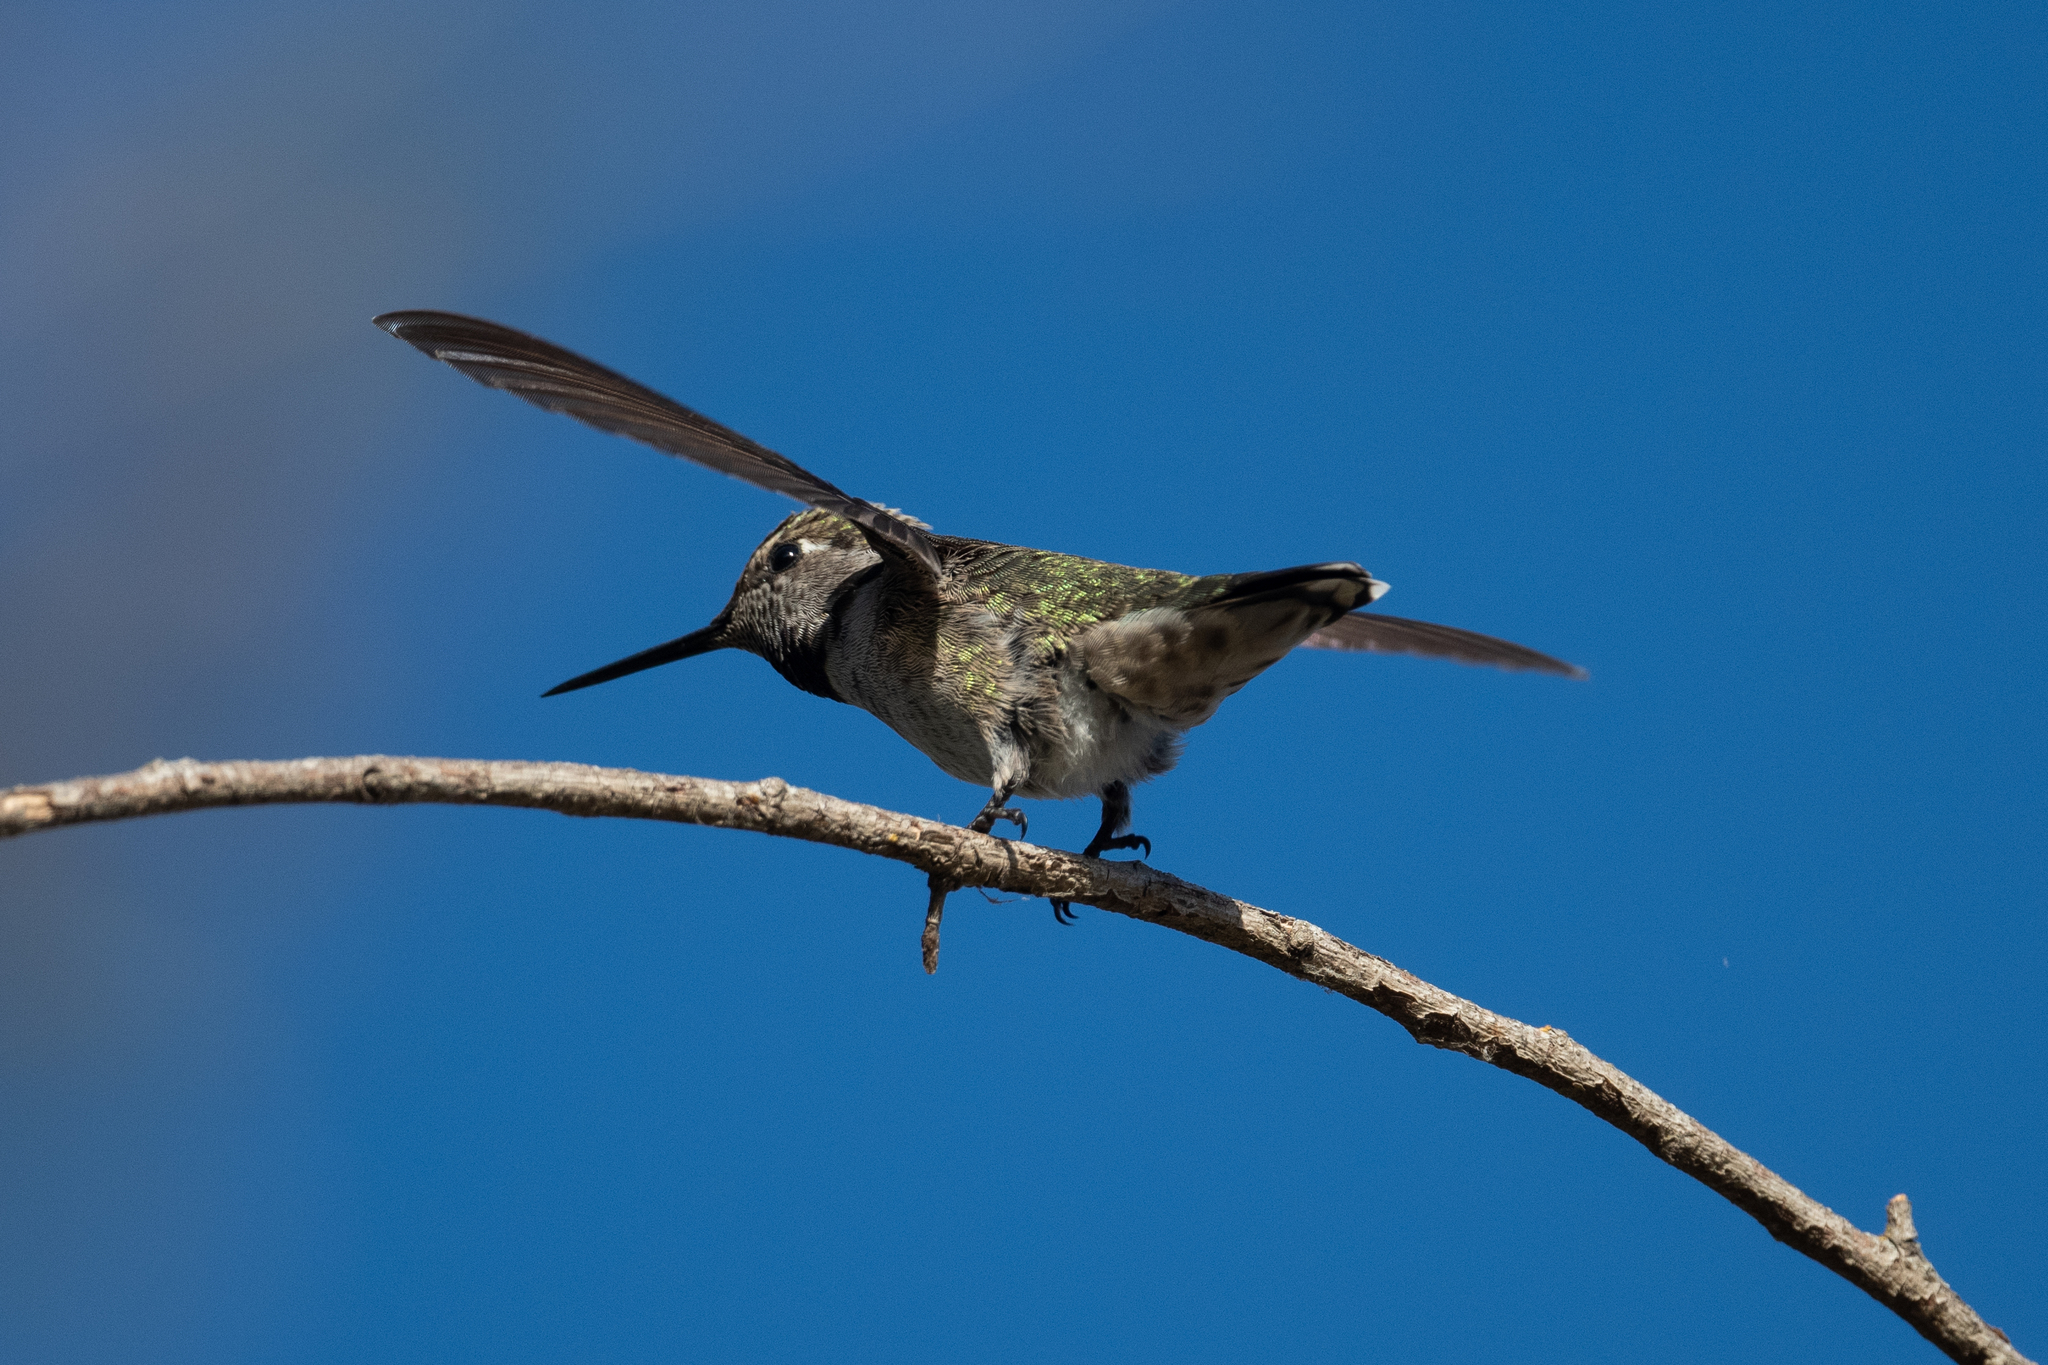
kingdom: Animalia
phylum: Chordata
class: Aves
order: Apodiformes
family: Trochilidae
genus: Calypte
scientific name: Calypte anna
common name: Anna's hummingbird
